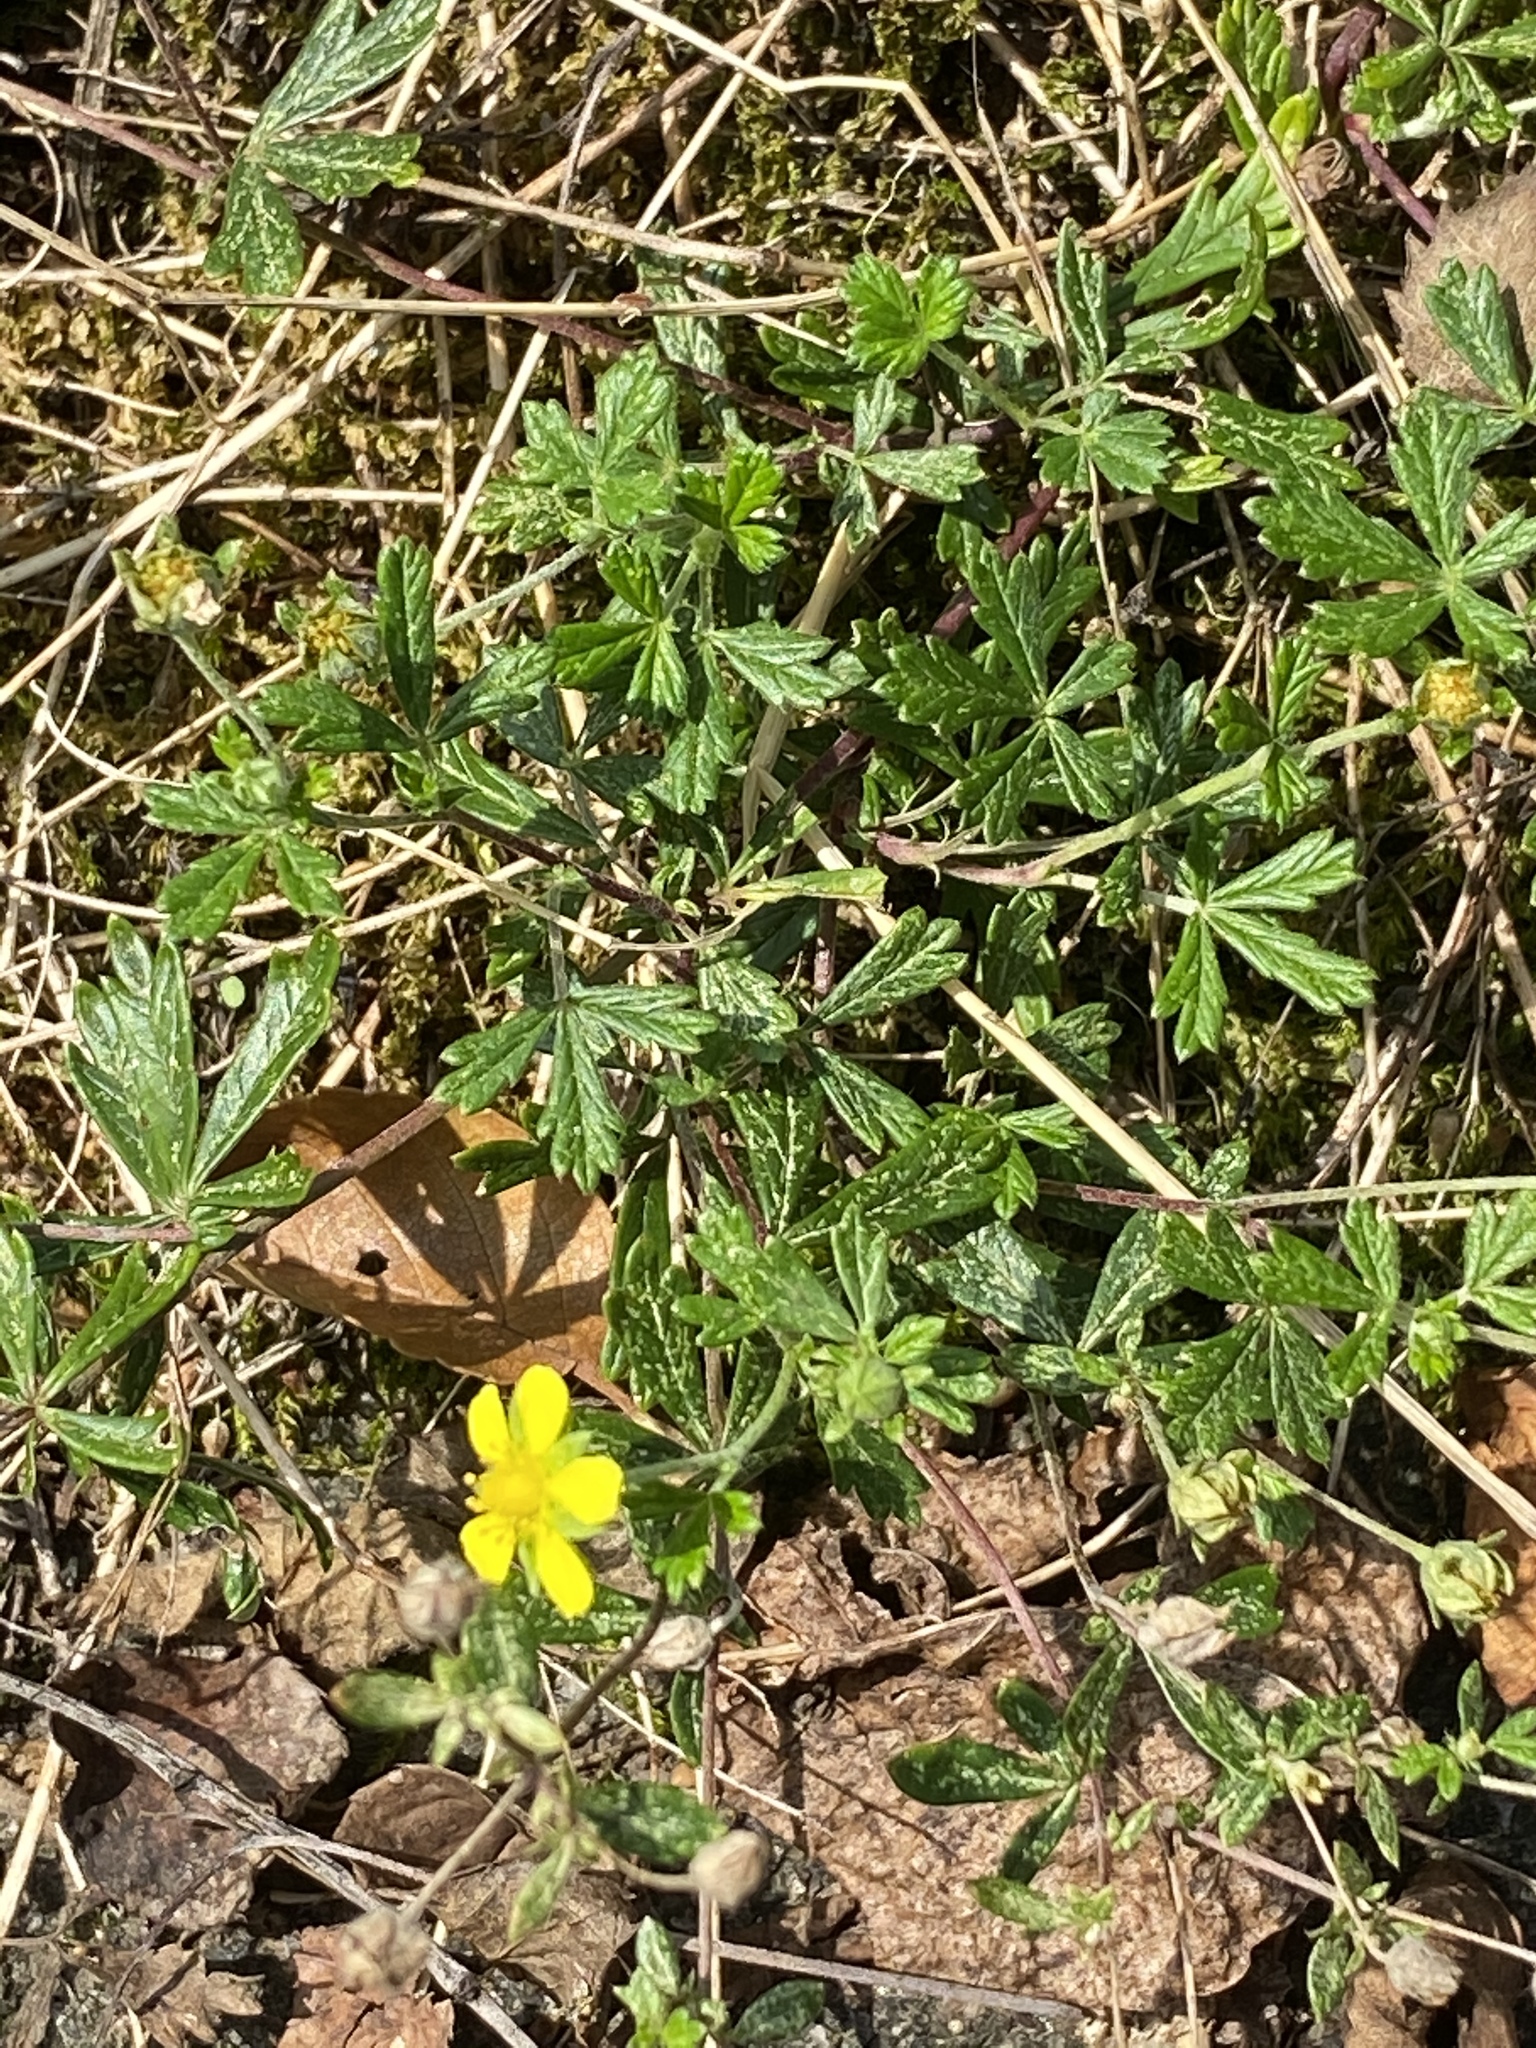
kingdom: Plantae
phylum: Tracheophyta
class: Magnoliopsida
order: Rosales
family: Rosaceae
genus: Potentilla
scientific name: Potentilla argentea
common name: Hoary cinquefoil
